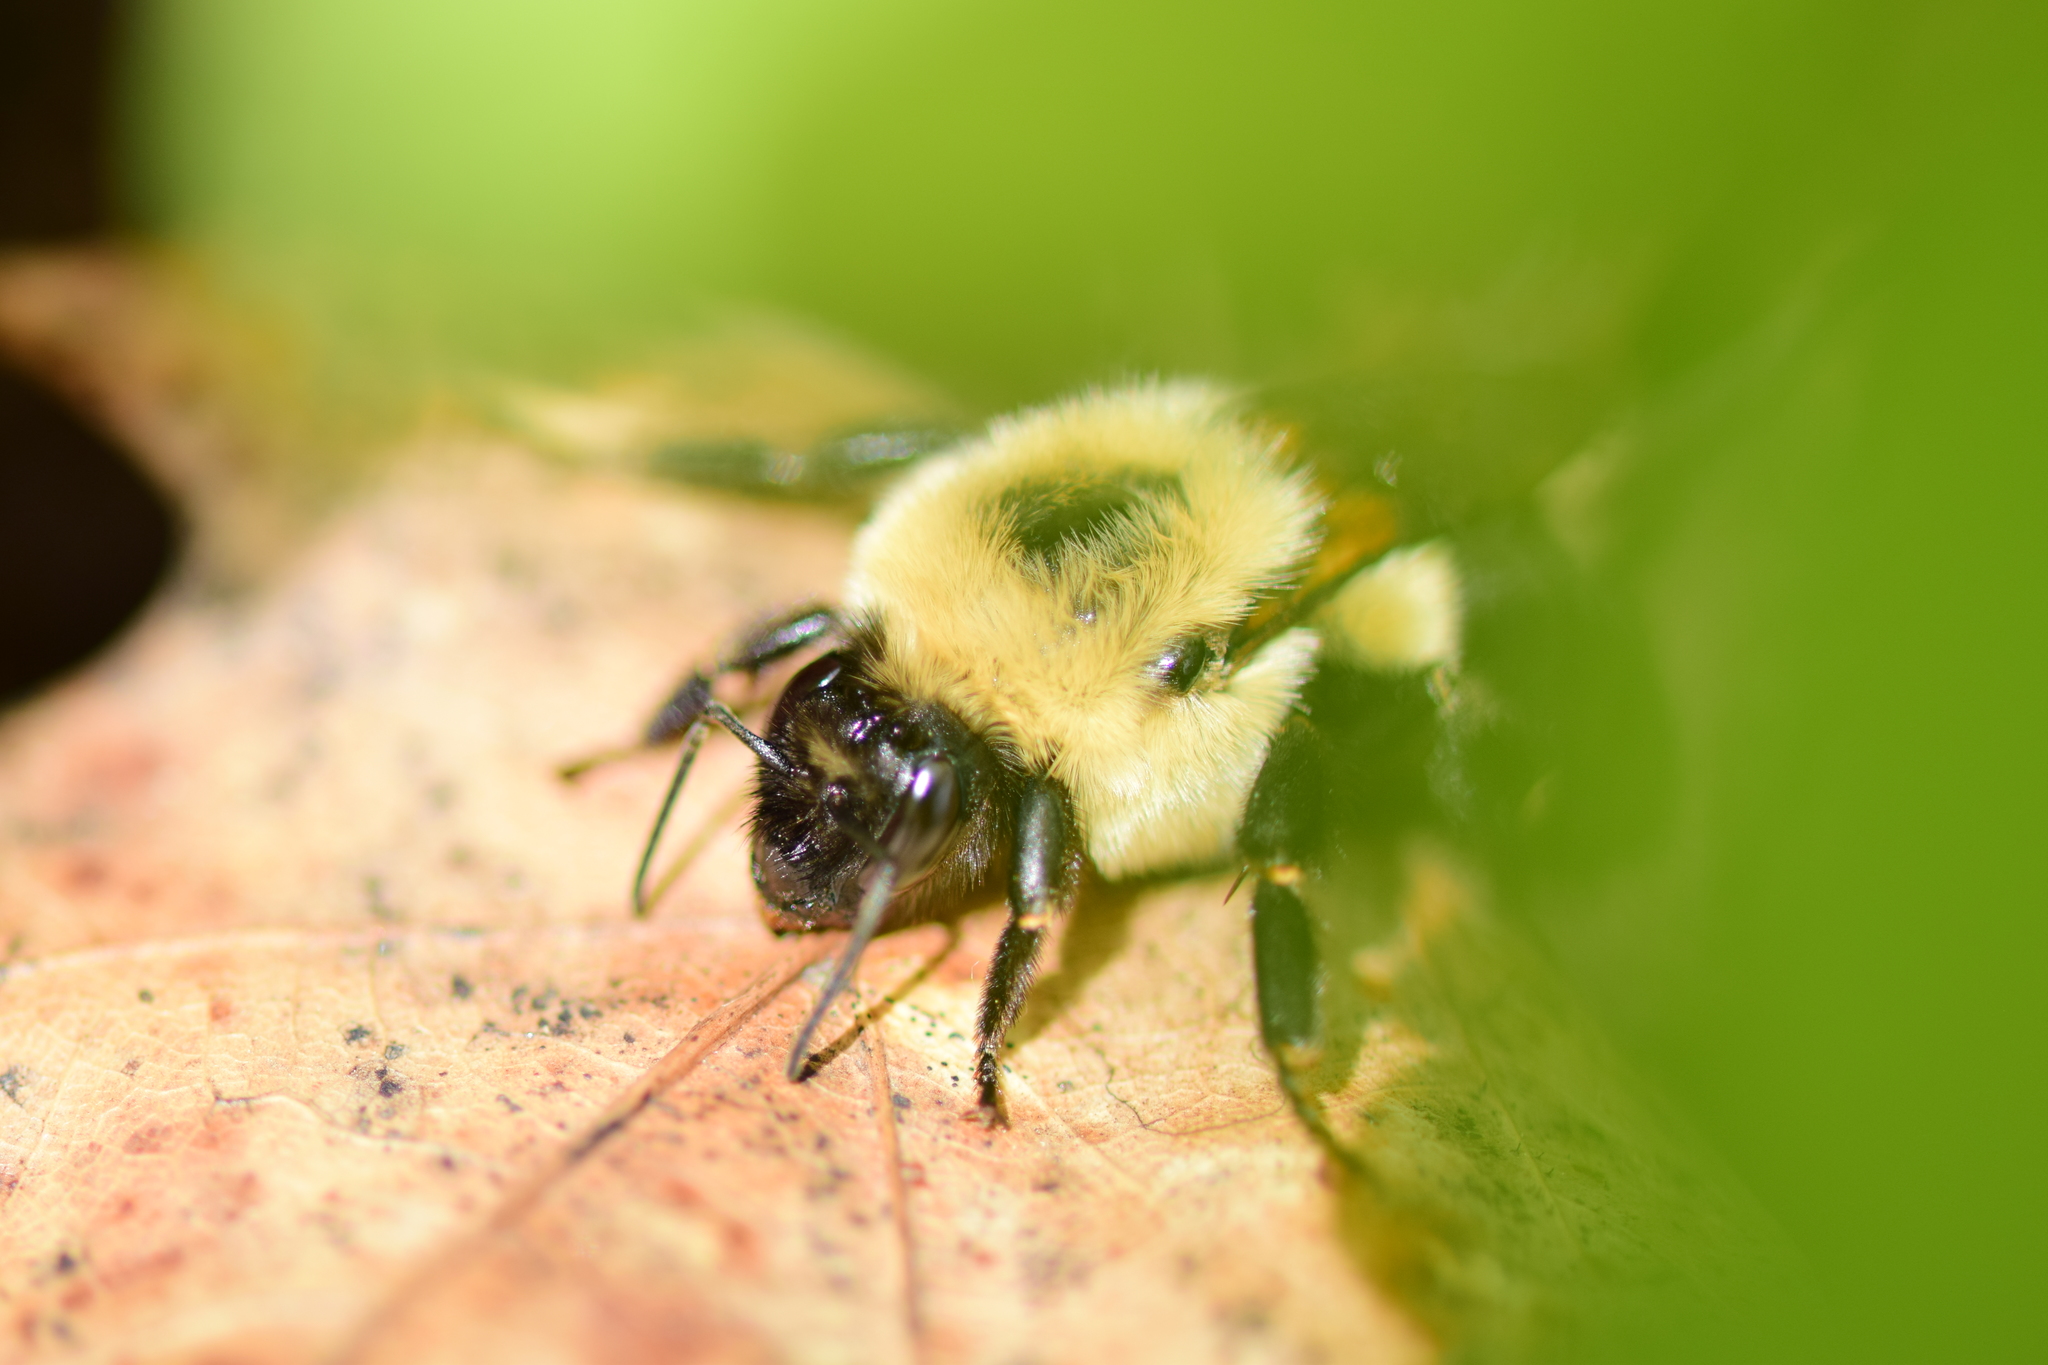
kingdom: Animalia
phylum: Arthropoda
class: Insecta
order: Hymenoptera
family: Apidae
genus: Bombus
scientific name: Bombus impatiens
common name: Common eastern bumble bee
